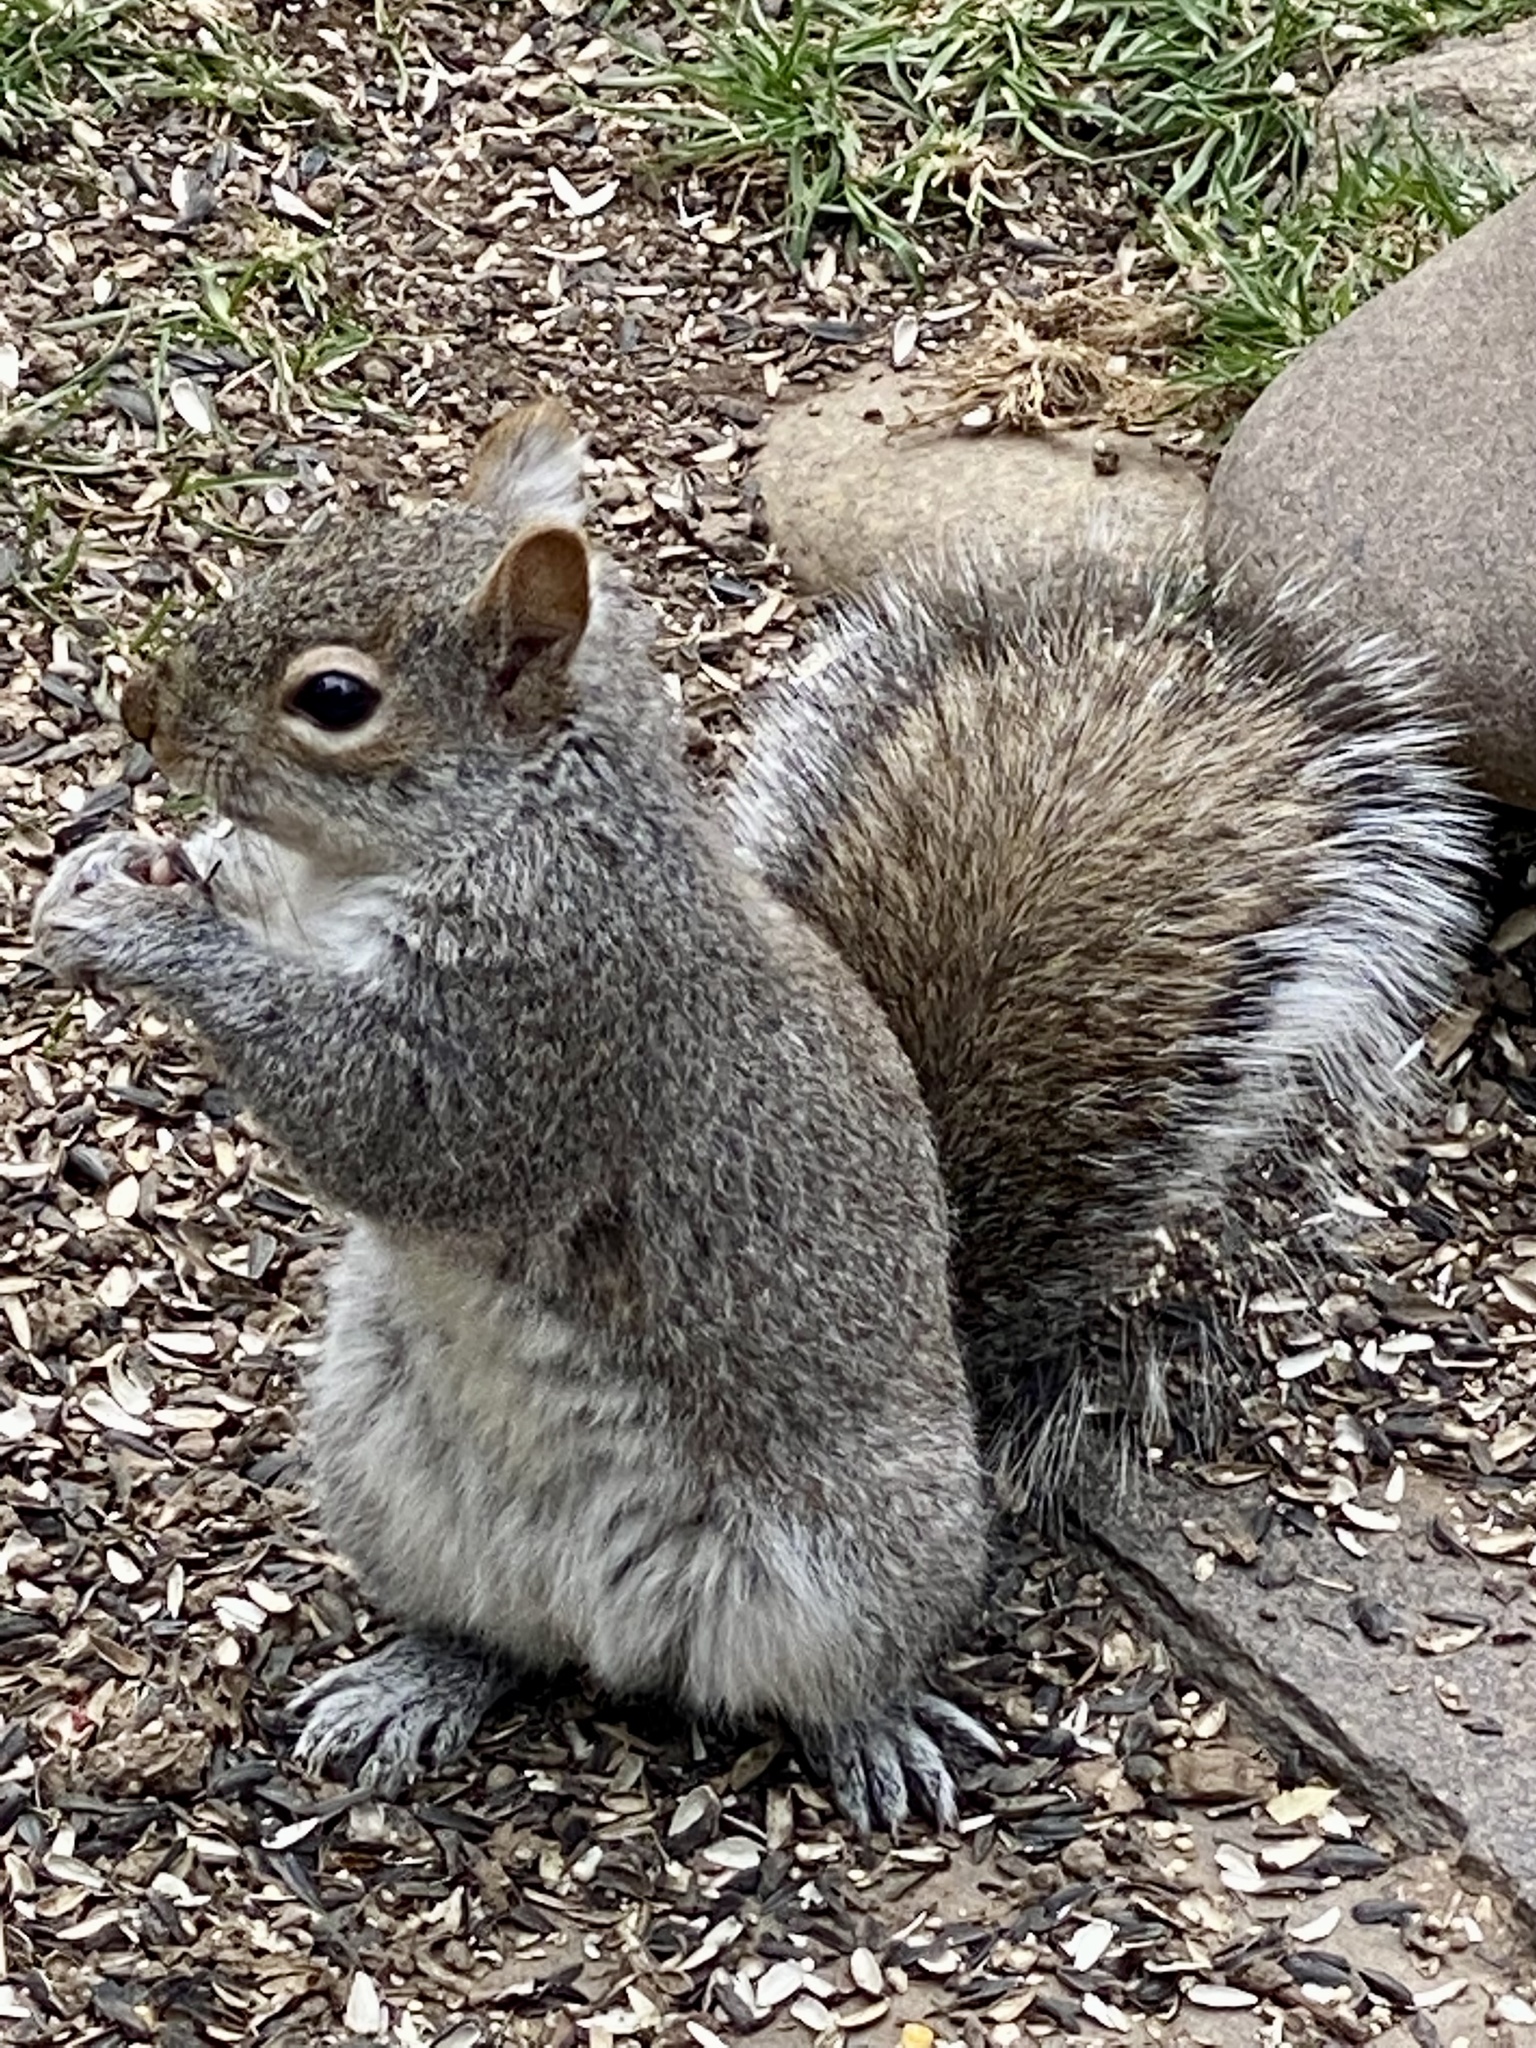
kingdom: Animalia
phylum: Chordata
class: Mammalia
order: Rodentia
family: Sciuridae
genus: Sciurus
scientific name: Sciurus carolinensis
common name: Eastern gray squirrel
